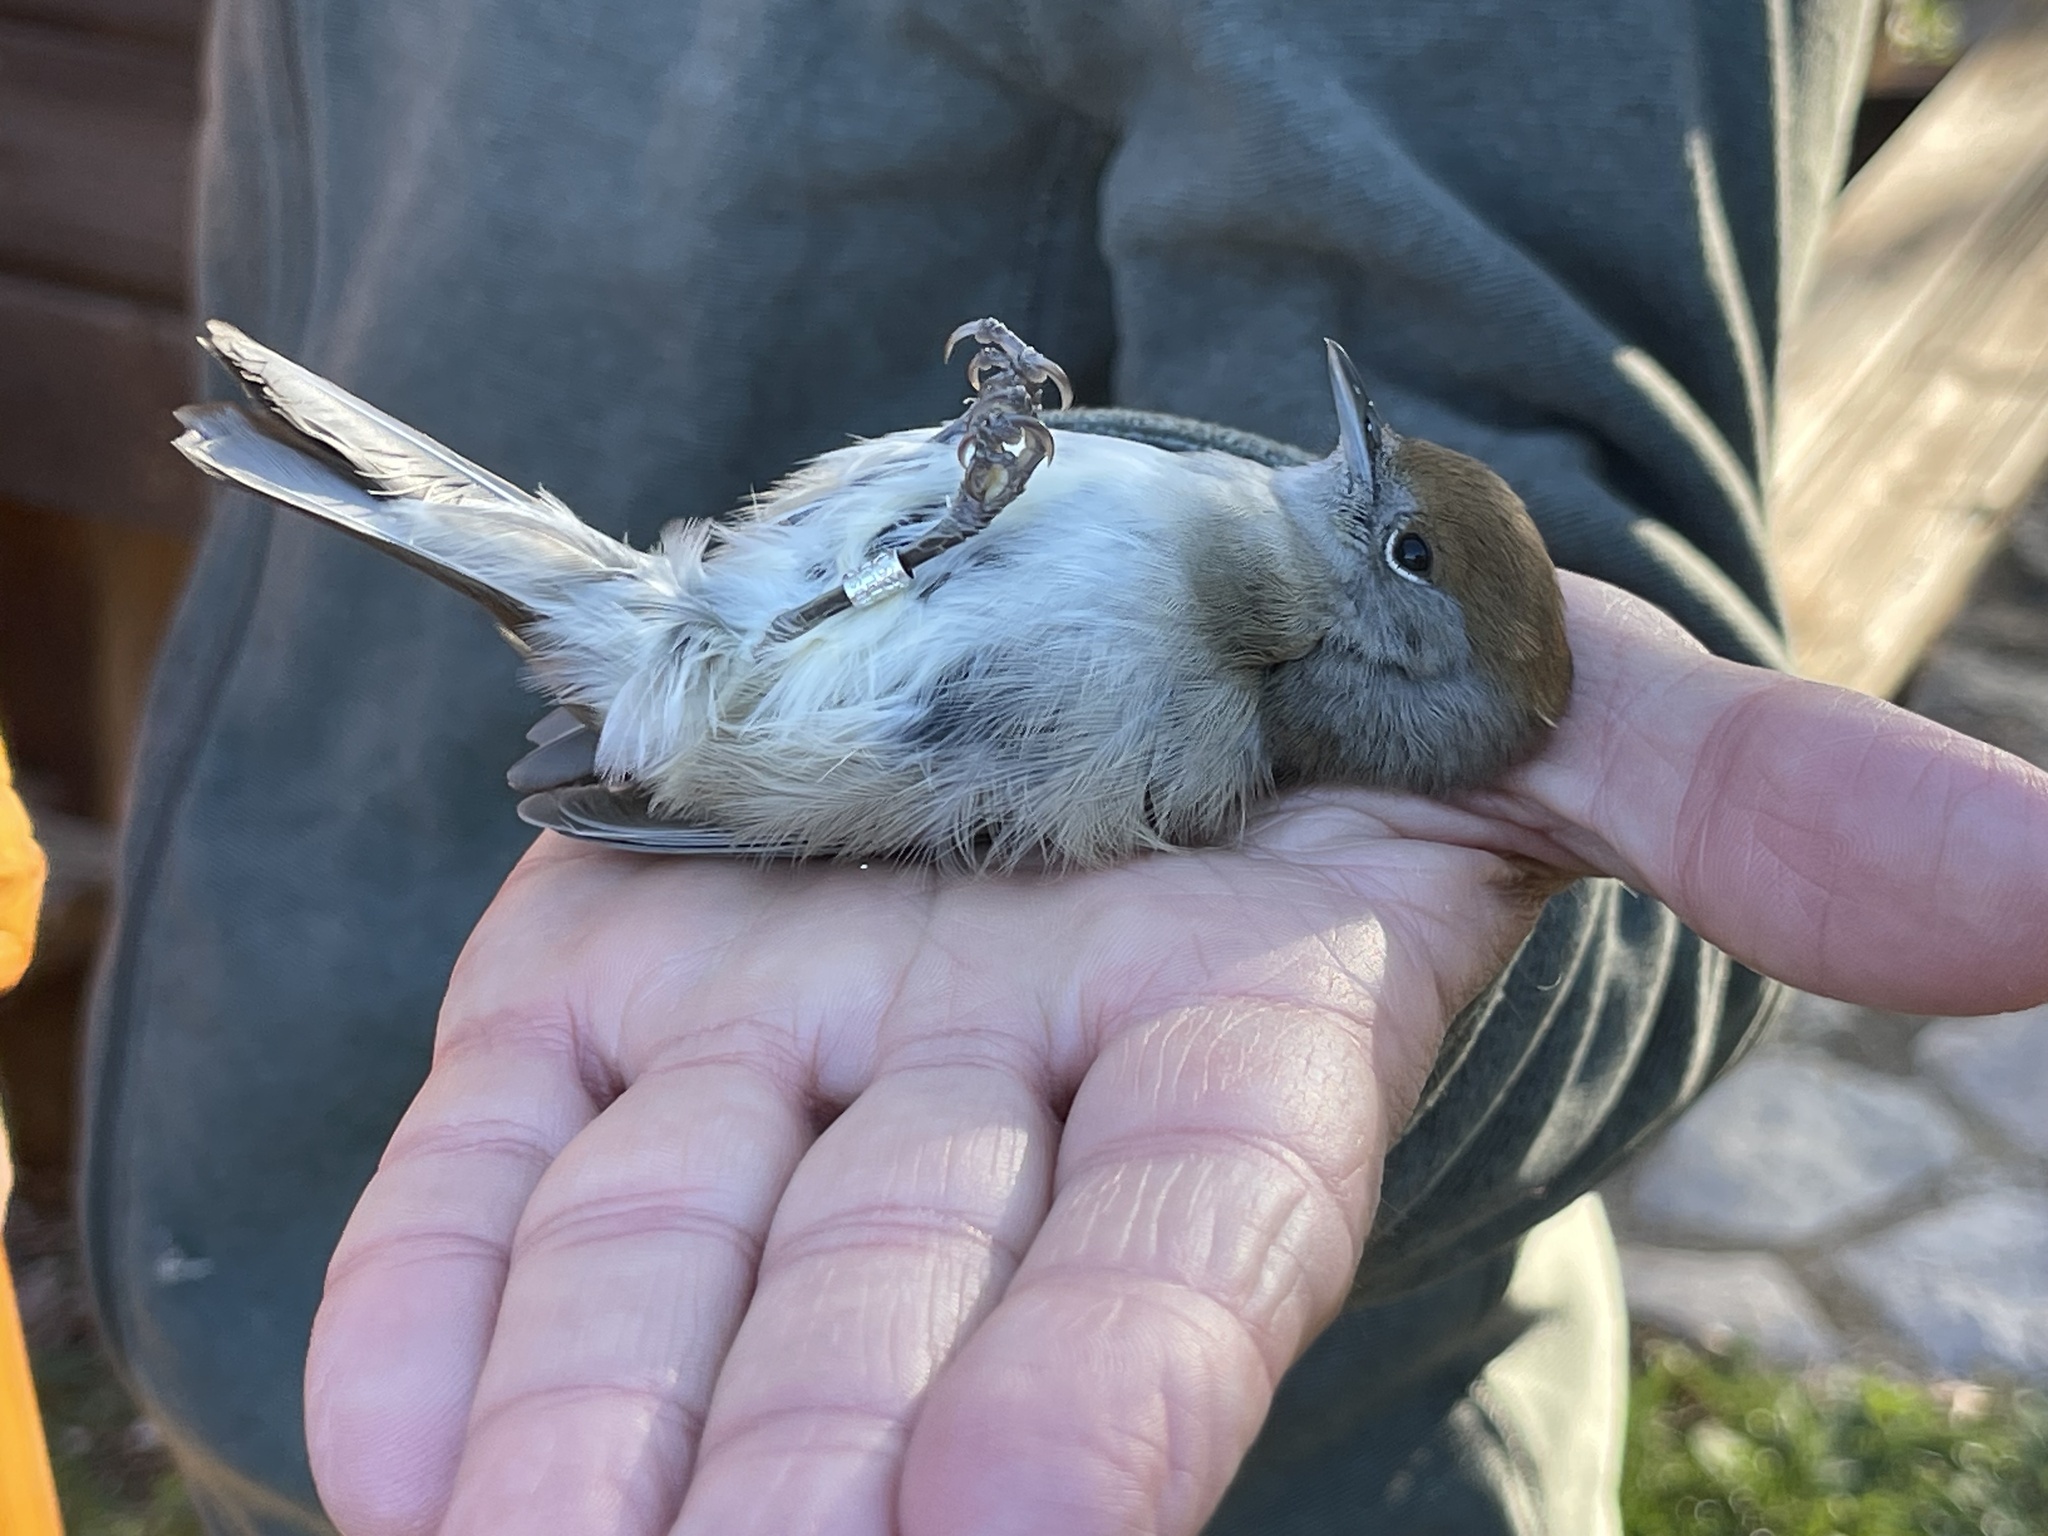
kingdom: Animalia
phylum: Chordata
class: Aves
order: Passeriformes
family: Sylviidae
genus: Sylvia
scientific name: Sylvia atricapilla
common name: Eurasian blackcap
